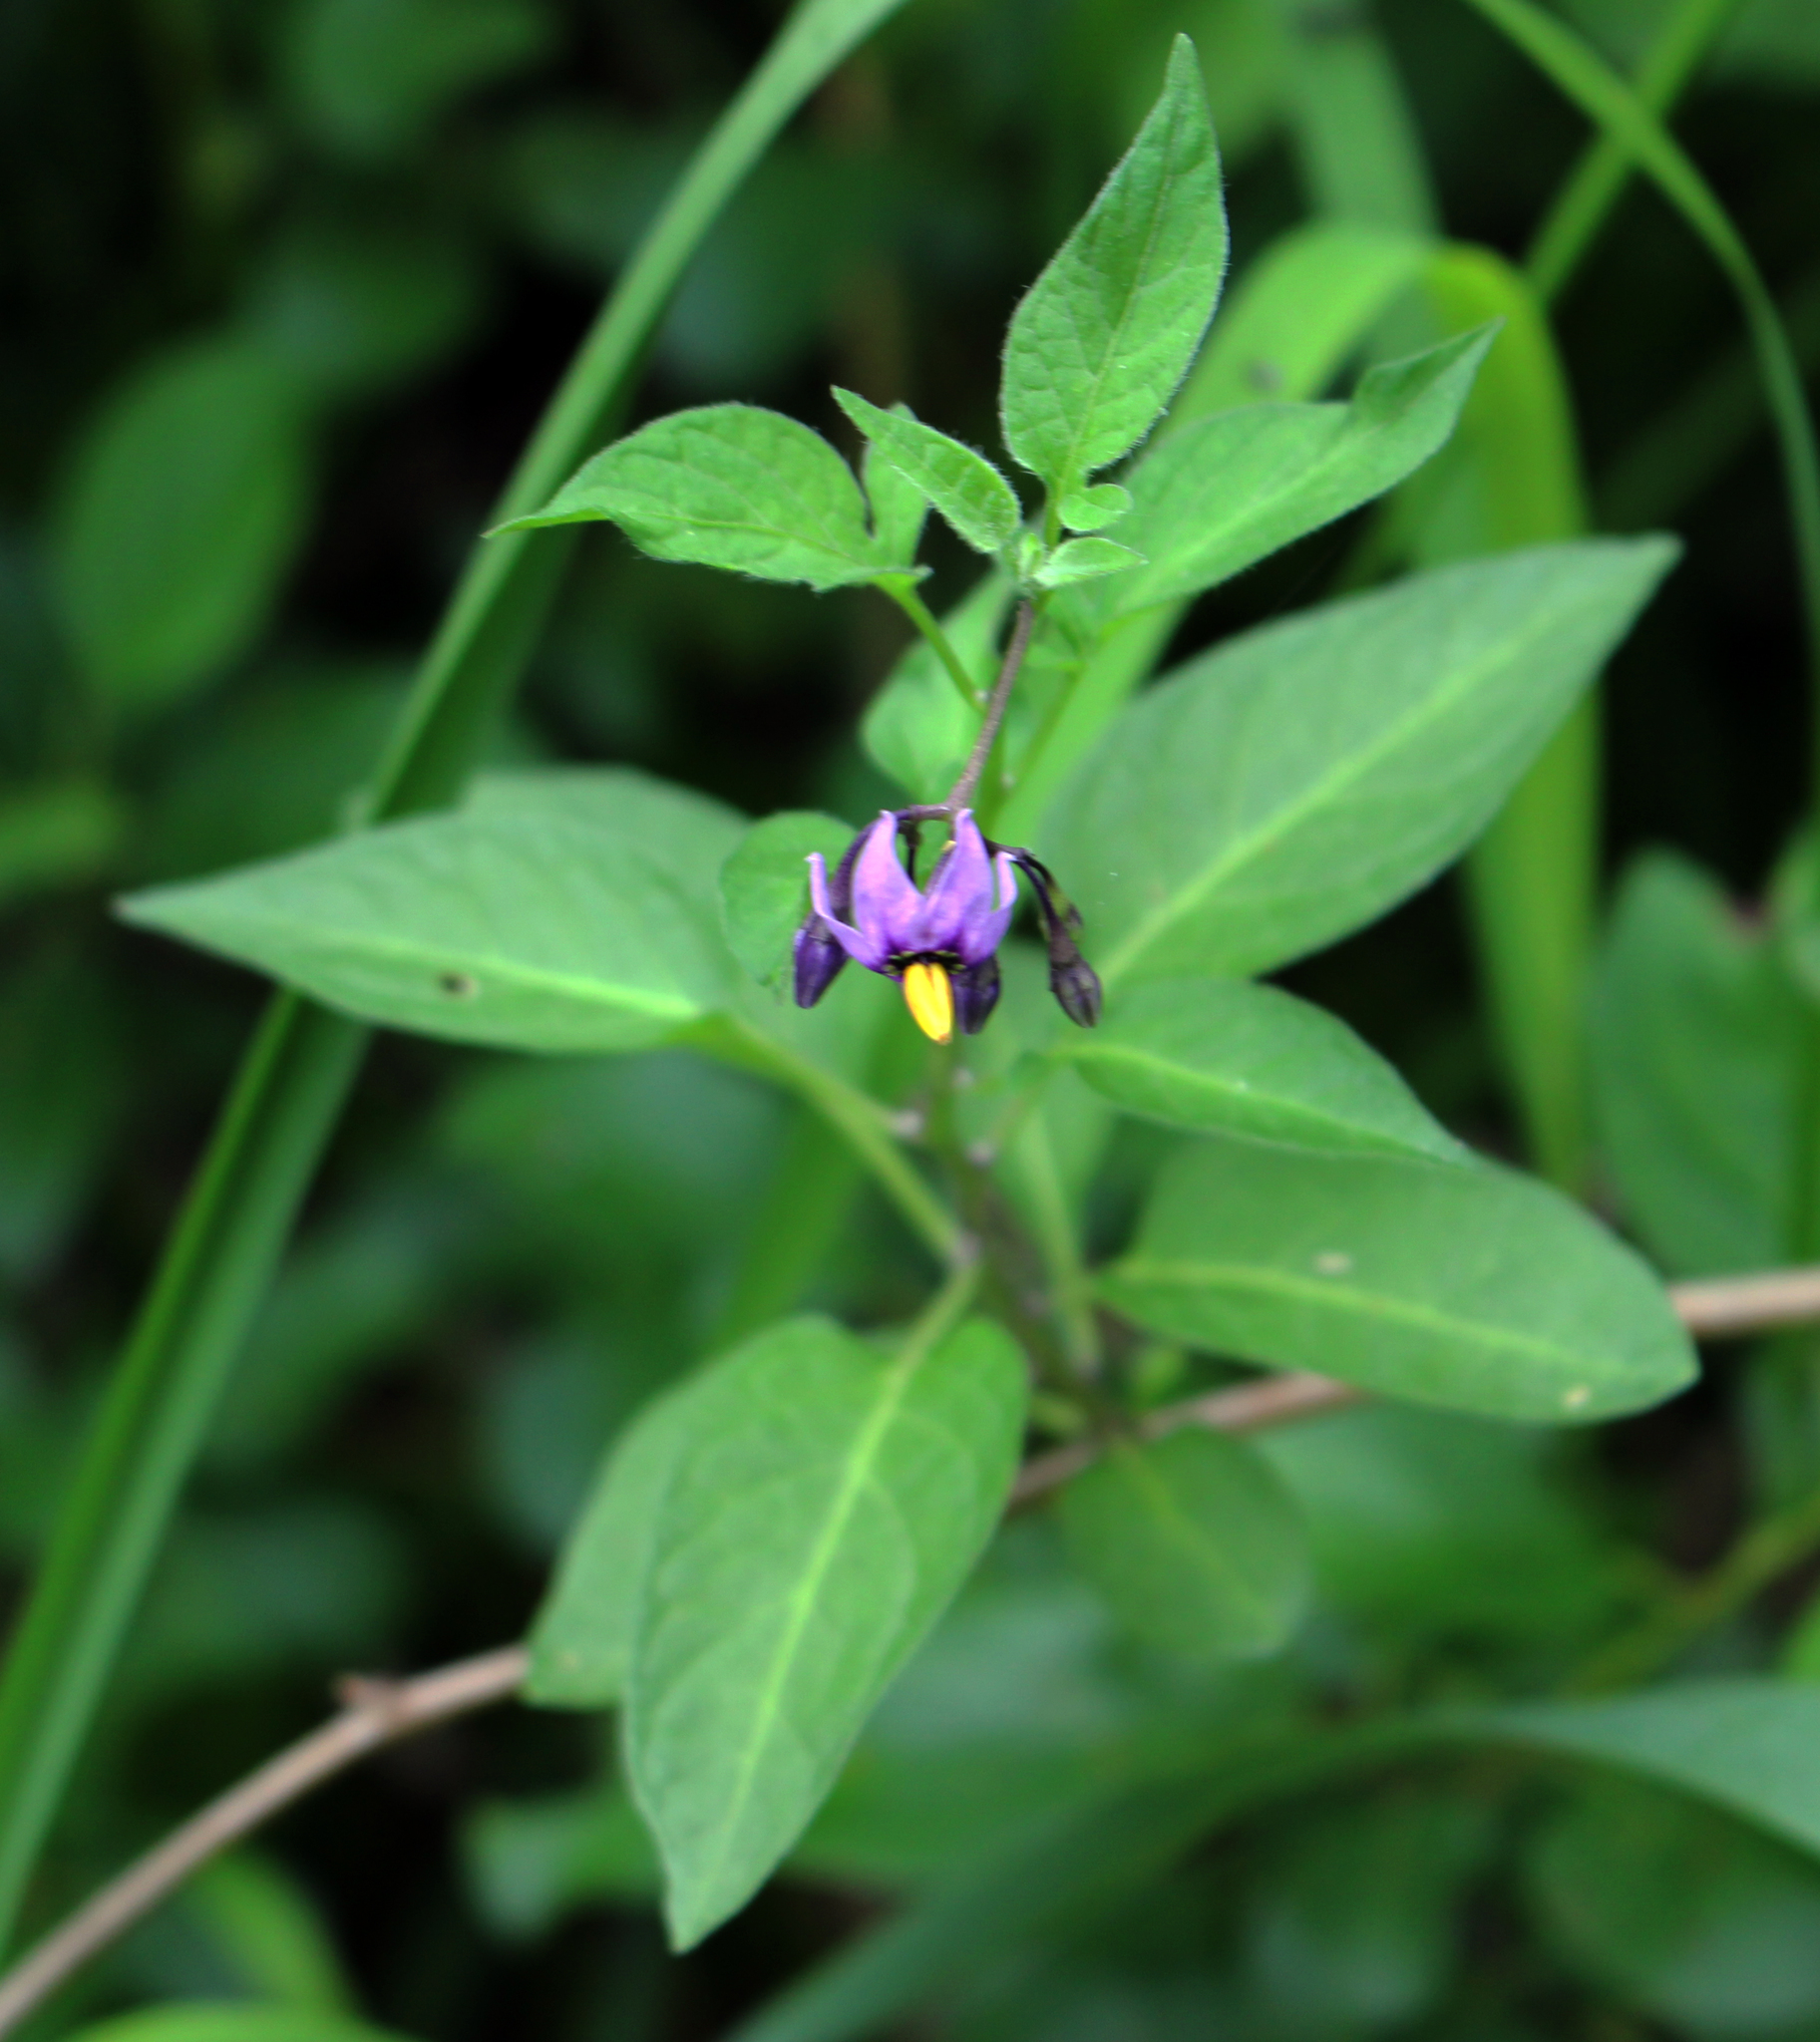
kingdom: Plantae
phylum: Tracheophyta
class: Magnoliopsida
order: Solanales
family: Solanaceae
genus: Solanum
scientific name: Solanum dulcamara
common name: Climbing nightshade
